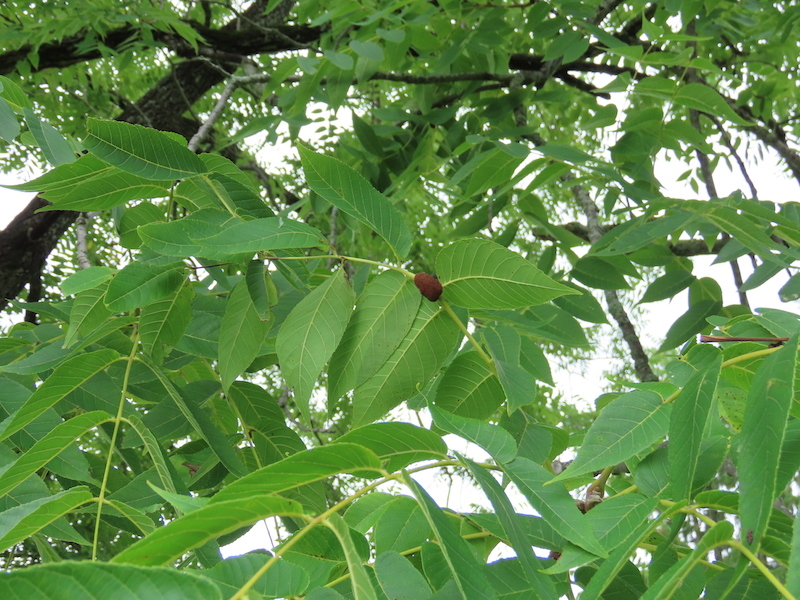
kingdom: Animalia
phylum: Arthropoda
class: Arachnida
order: Trombidiformes
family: Eriophyidae
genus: Aceria
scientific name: Aceria
